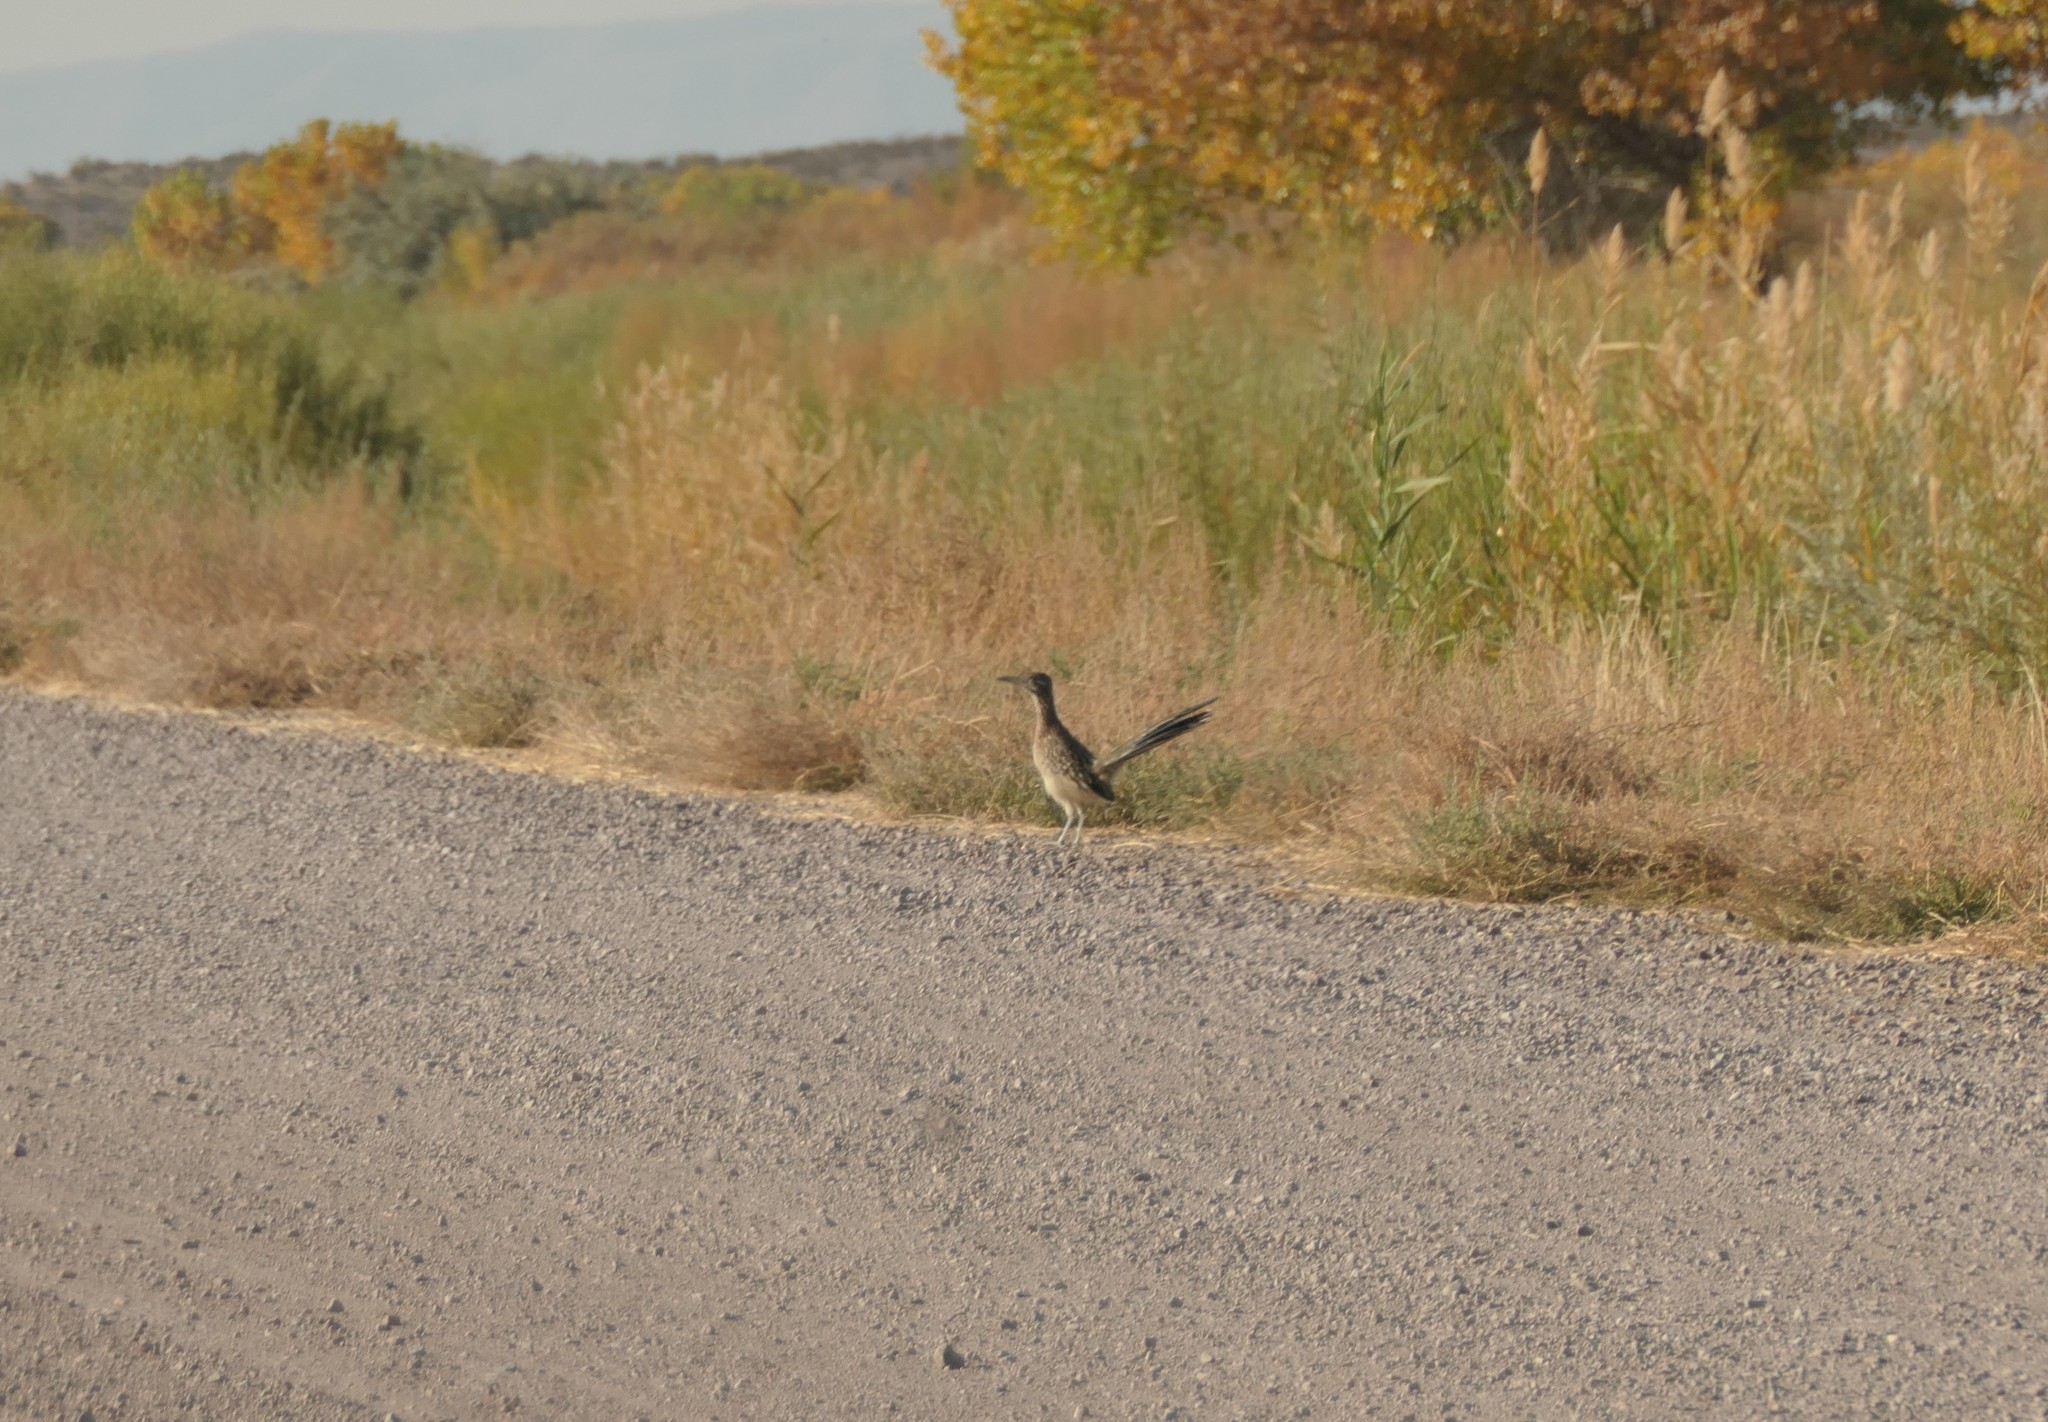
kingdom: Animalia
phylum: Chordata
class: Aves
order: Cuculiformes
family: Cuculidae
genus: Geococcyx
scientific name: Geococcyx californianus
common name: Greater roadrunner
